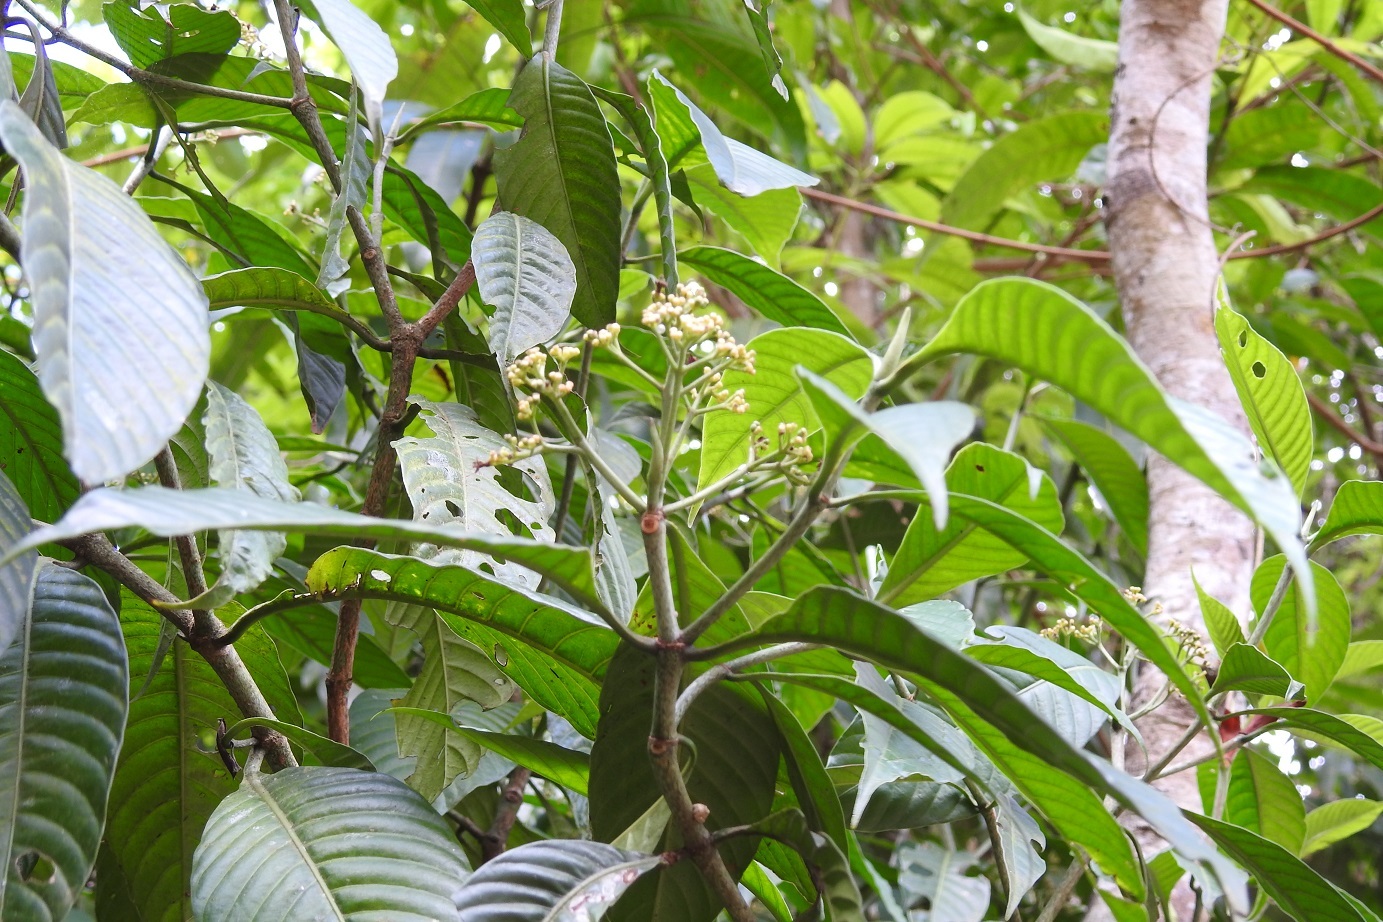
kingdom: Plantae
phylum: Tracheophyta
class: Magnoliopsida
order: Gentianales
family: Rubiaceae
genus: Psychotria
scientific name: Psychotria trichotoma
